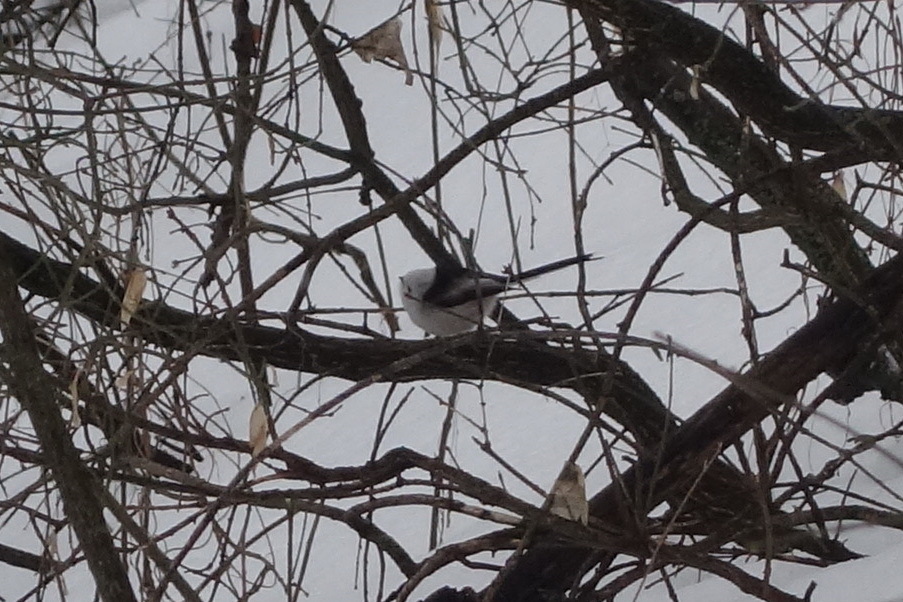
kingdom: Animalia
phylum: Chordata
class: Aves
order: Passeriformes
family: Aegithalidae
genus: Aegithalos
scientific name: Aegithalos caudatus
